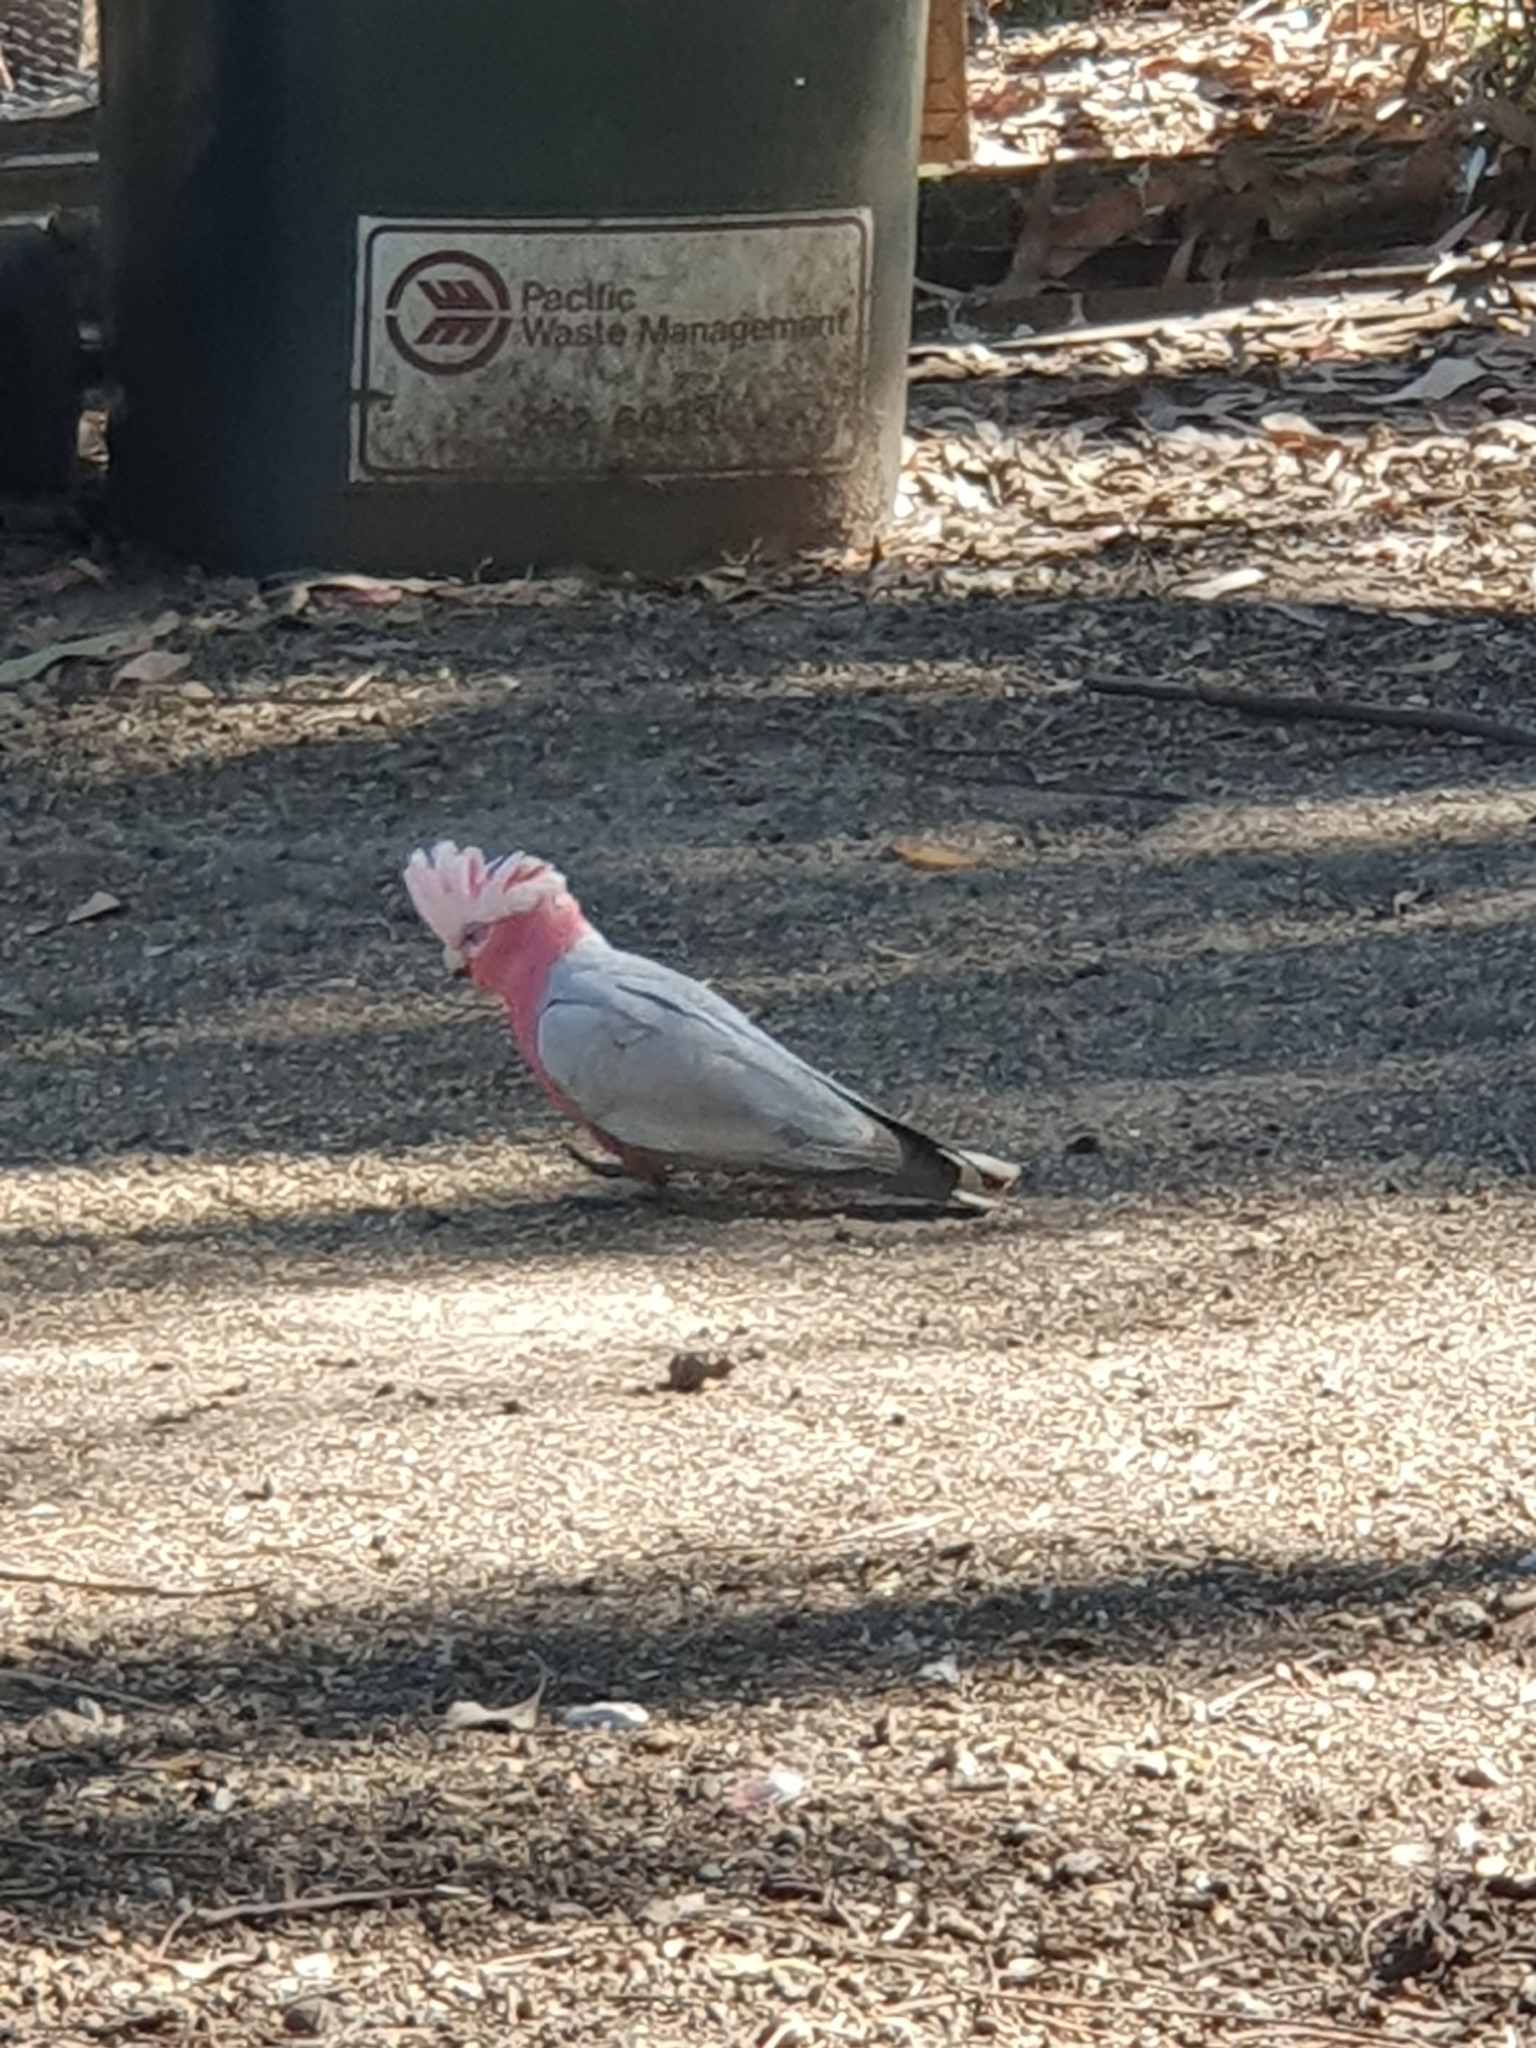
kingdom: Animalia
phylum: Chordata
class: Aves
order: Psittaciformes
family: Psittacidae
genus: Eolophus
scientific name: Eolophus roseicapilla
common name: Galah
